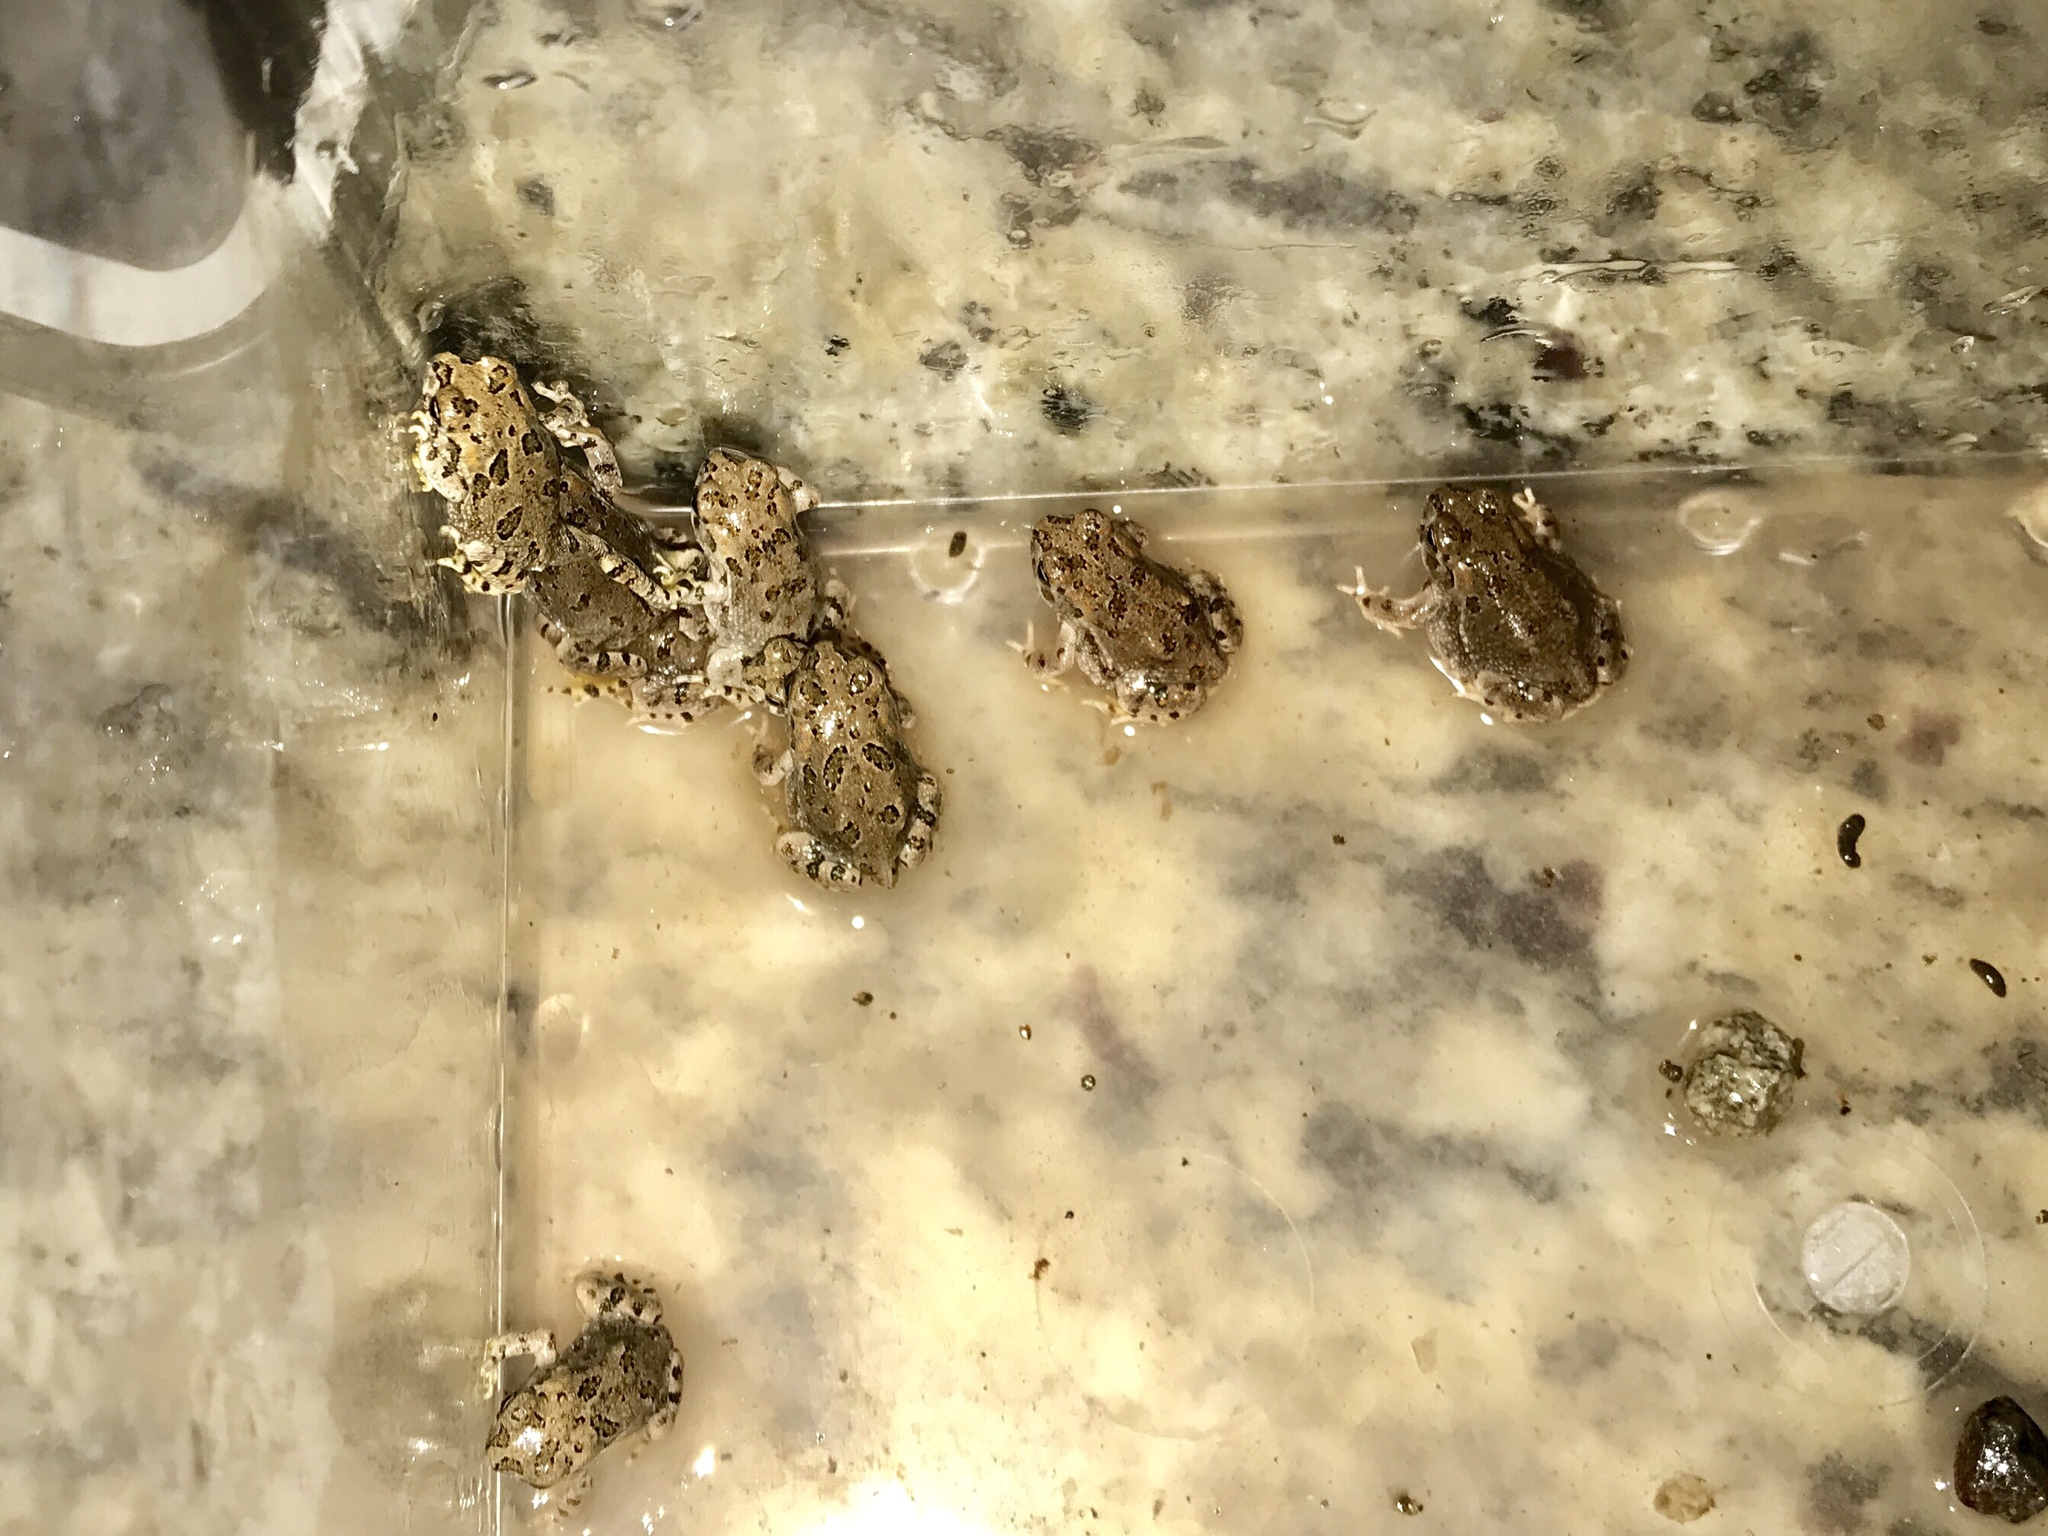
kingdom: Animalia
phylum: Chordata
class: Amphibia
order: Anura
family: Bufonidae
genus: Anaxyrus
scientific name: Anaxyrus cognatus
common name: Great plains toad
